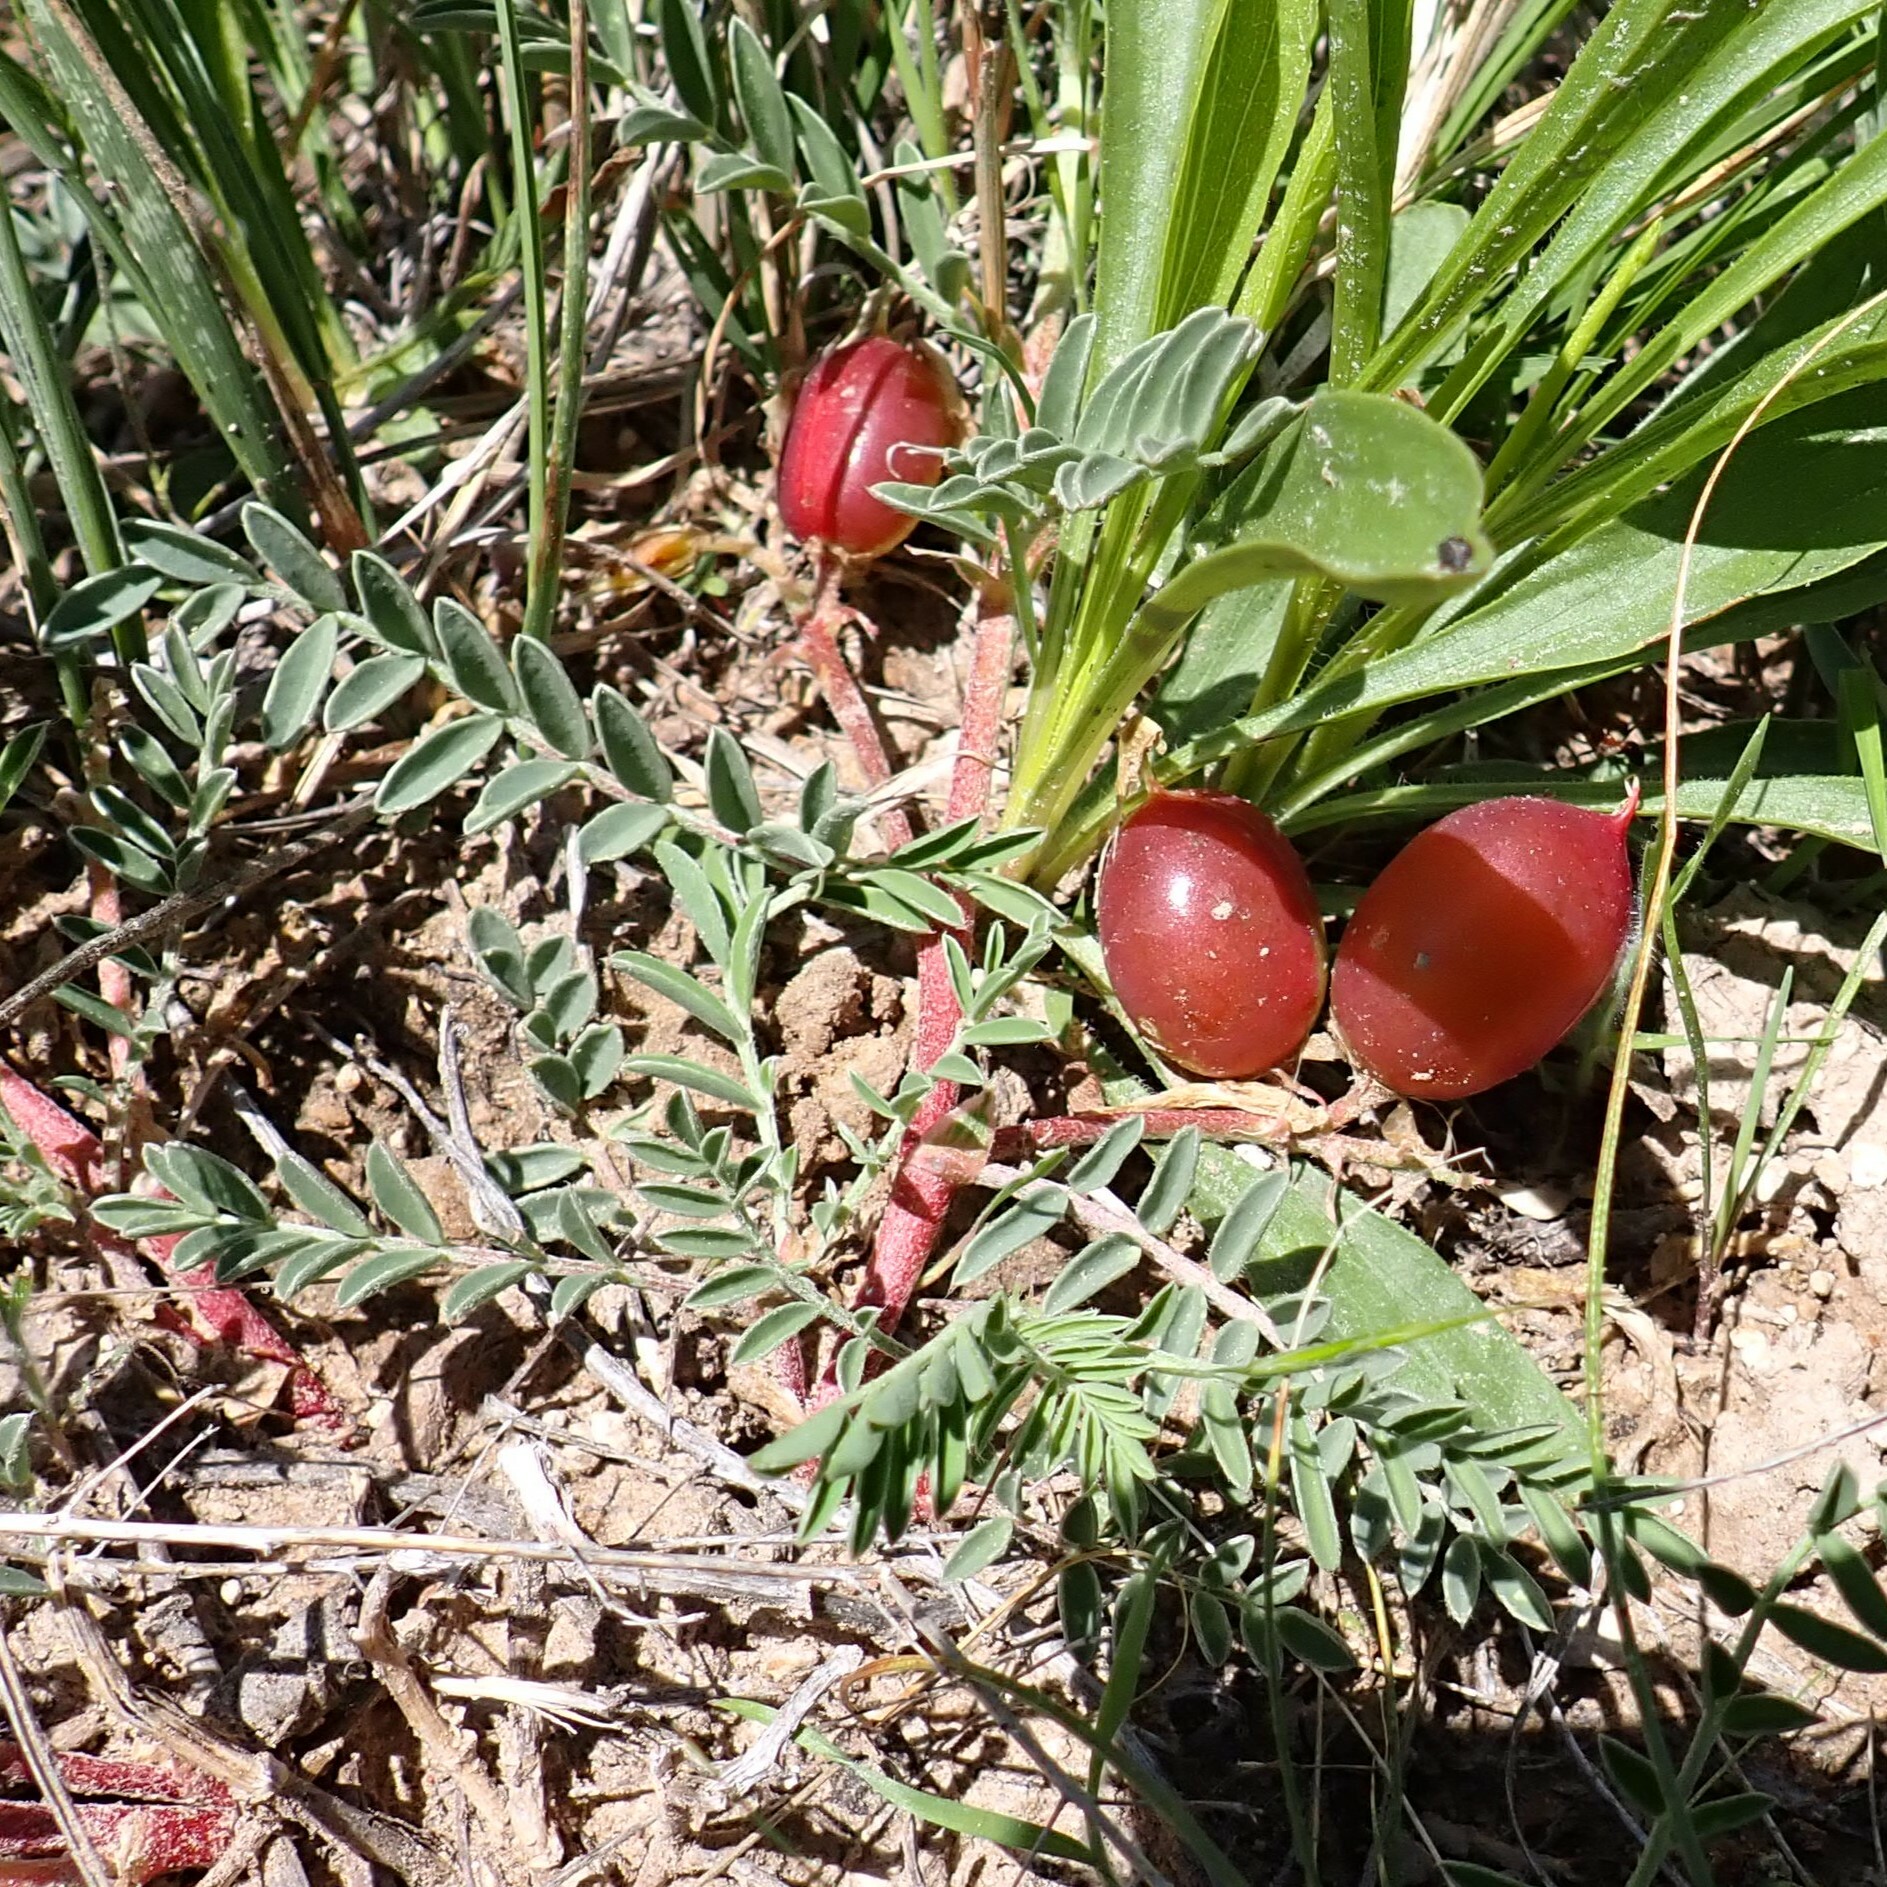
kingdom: Plantae
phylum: Tracheophyta
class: Magnoliopsida
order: Fabales
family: Fabaceae
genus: Astragalus
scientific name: Astragalus crassicarpus
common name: Ground-plum milk-vetch
